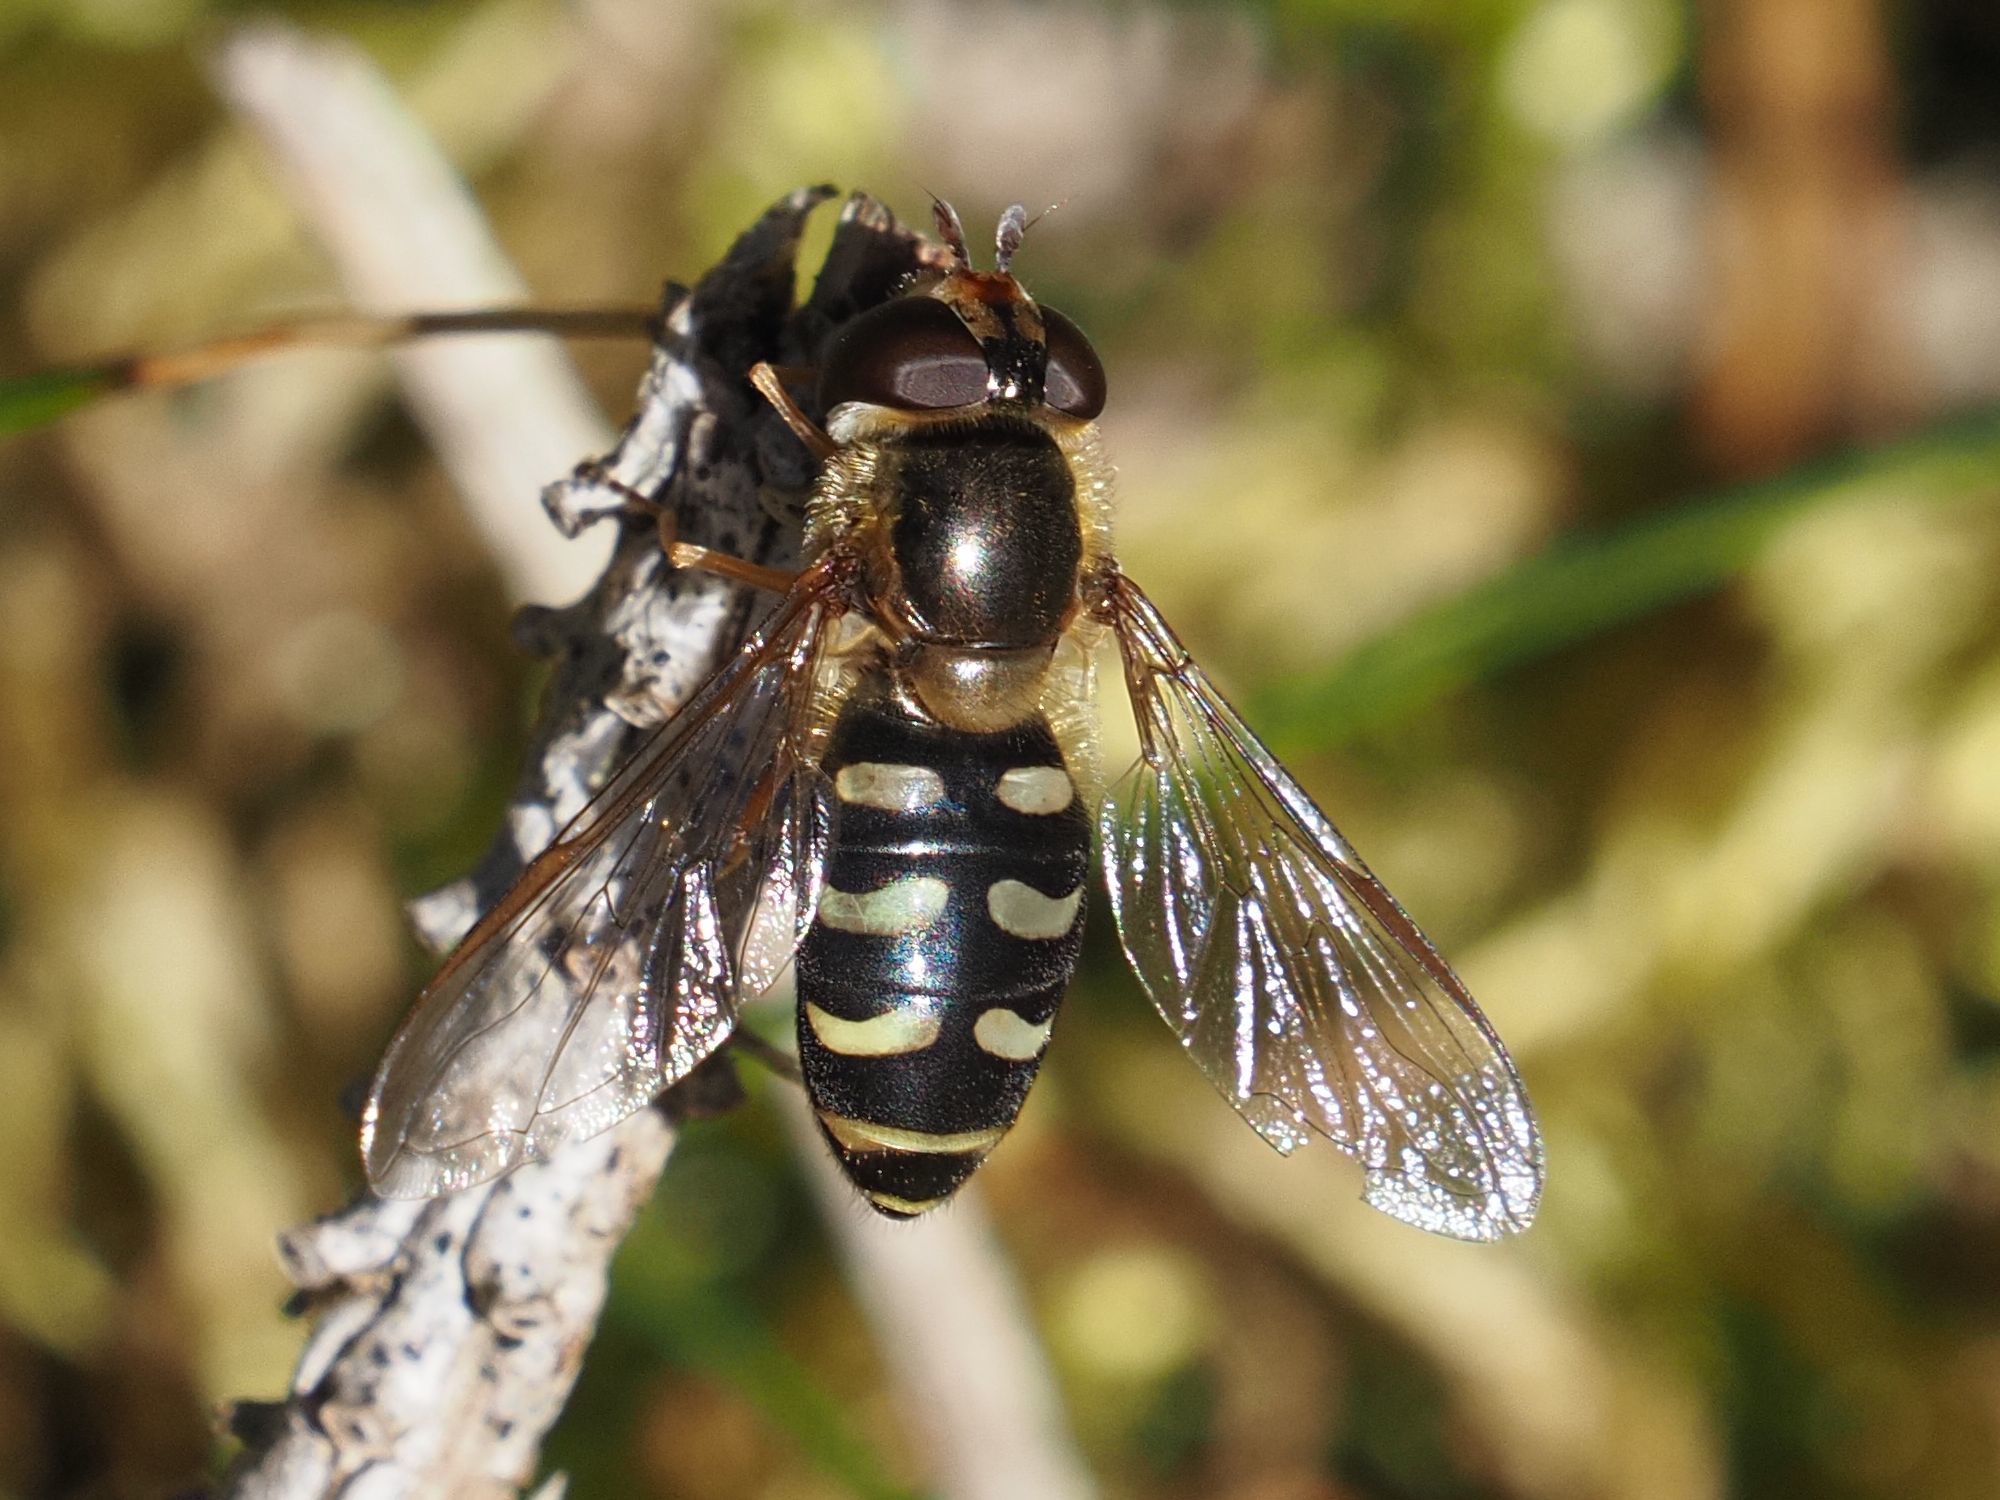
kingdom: Animalia
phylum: Arthropoda
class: Insecta
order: Diptera
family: Syrphidae
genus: Lapposyrphus
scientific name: Lapposyrphus lapponicus
